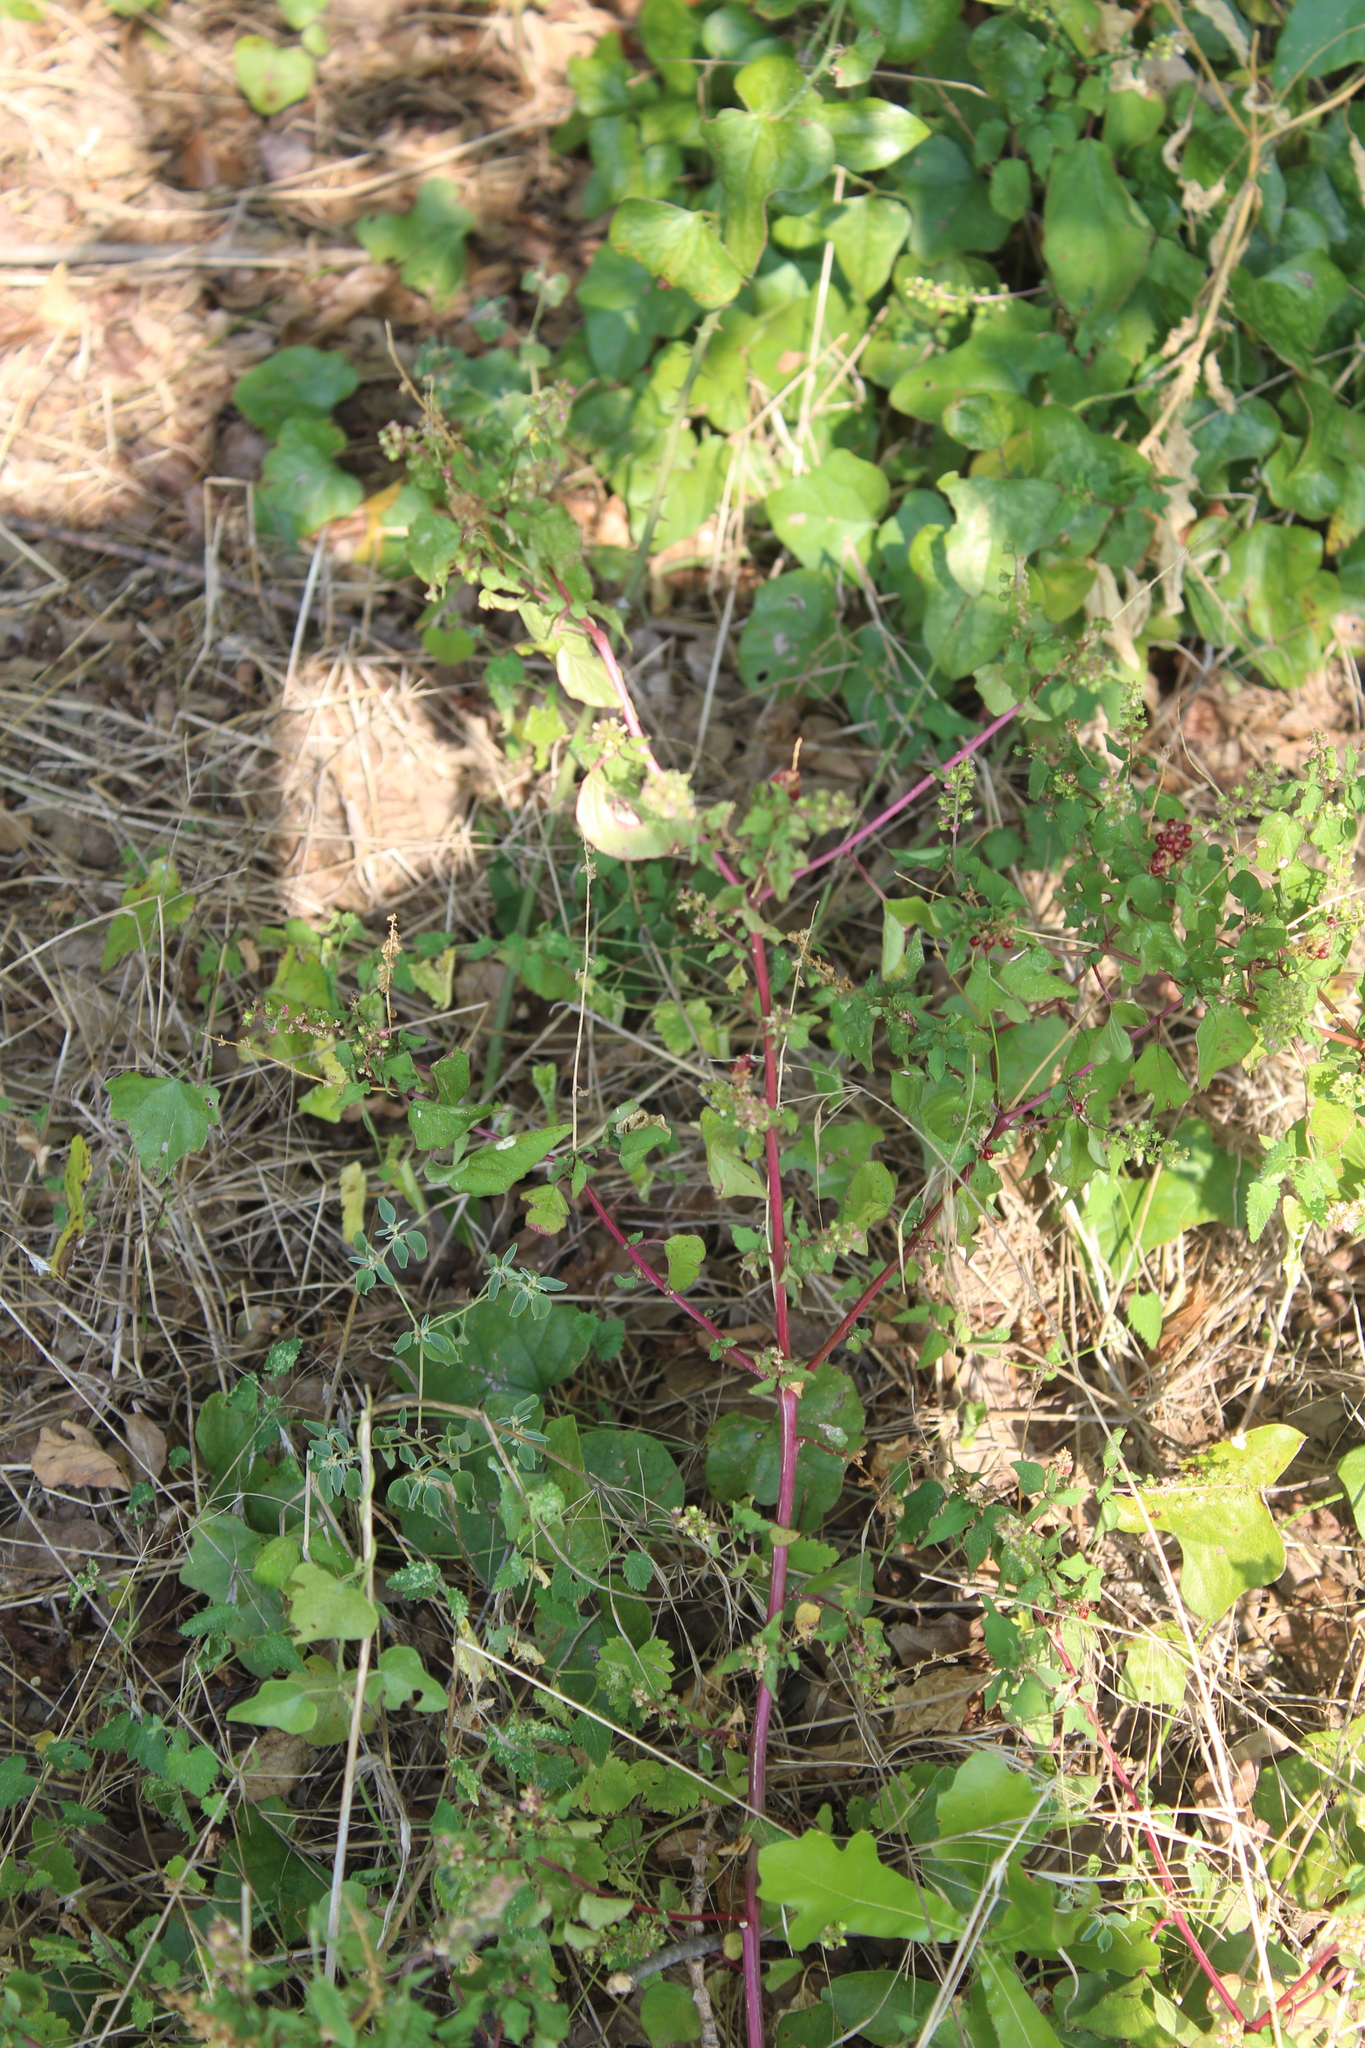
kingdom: Plantae
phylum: Tracheophyta
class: Magnoliopsida
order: Caryophyllales
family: Phytolaccaceae
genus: Rivina
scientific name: Rivina humilis
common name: Rougeplant
